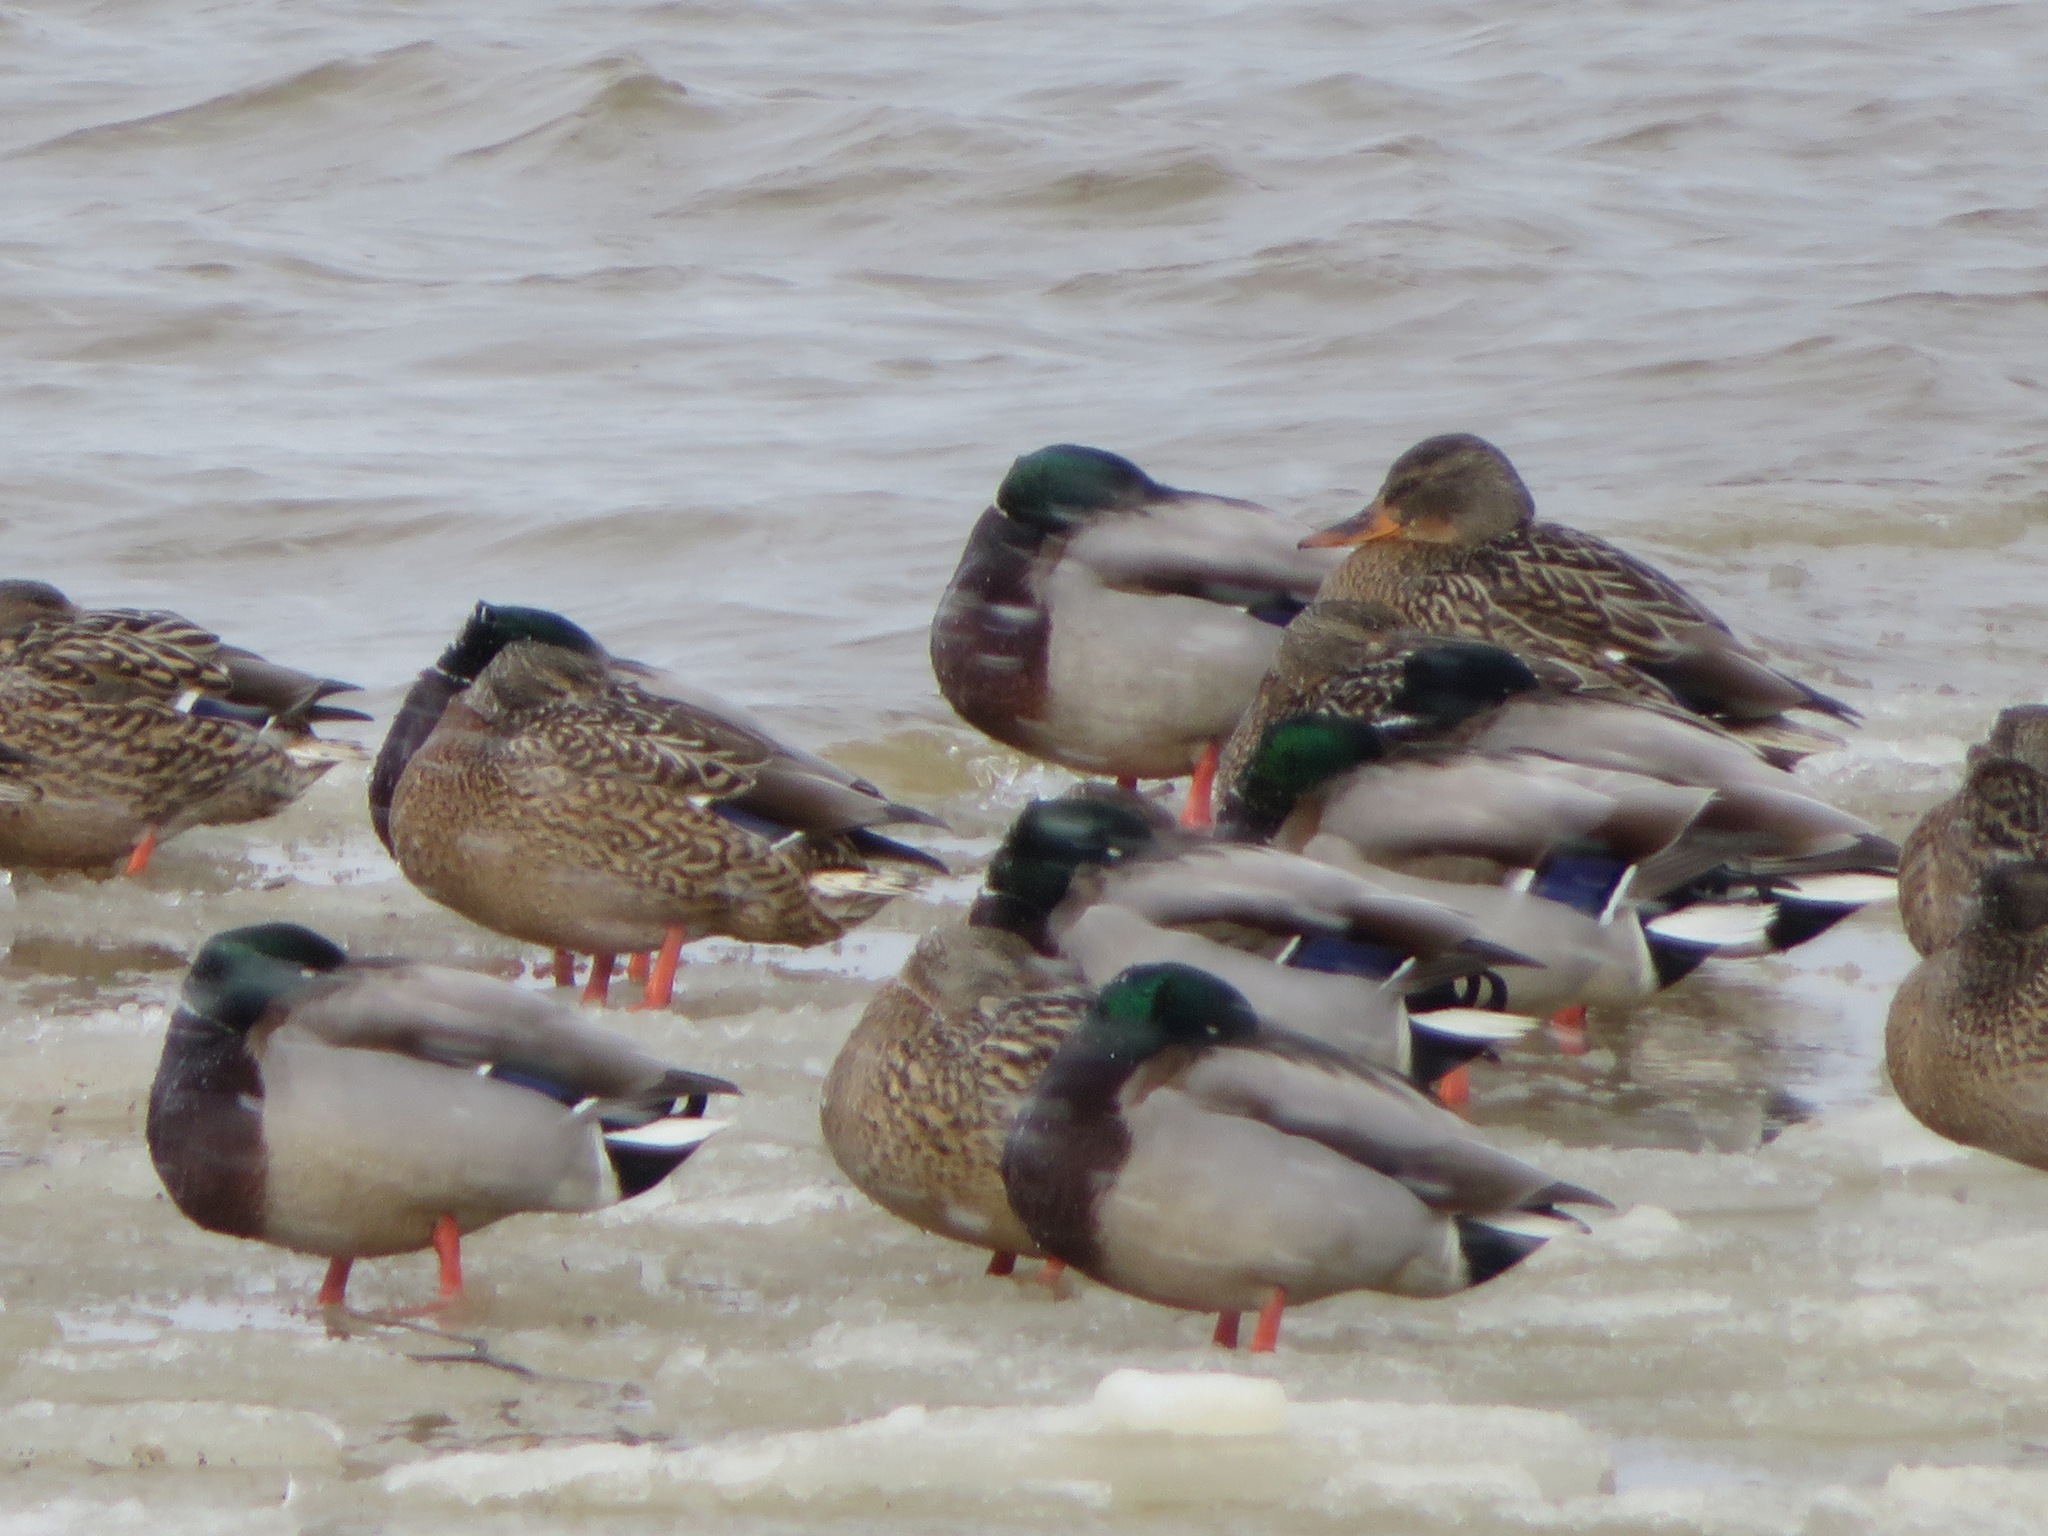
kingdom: Animalia
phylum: Chordata
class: Aves
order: Anseriformes
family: Anatidae
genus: Anas
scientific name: Anas platyrhynchos
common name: Mallard
